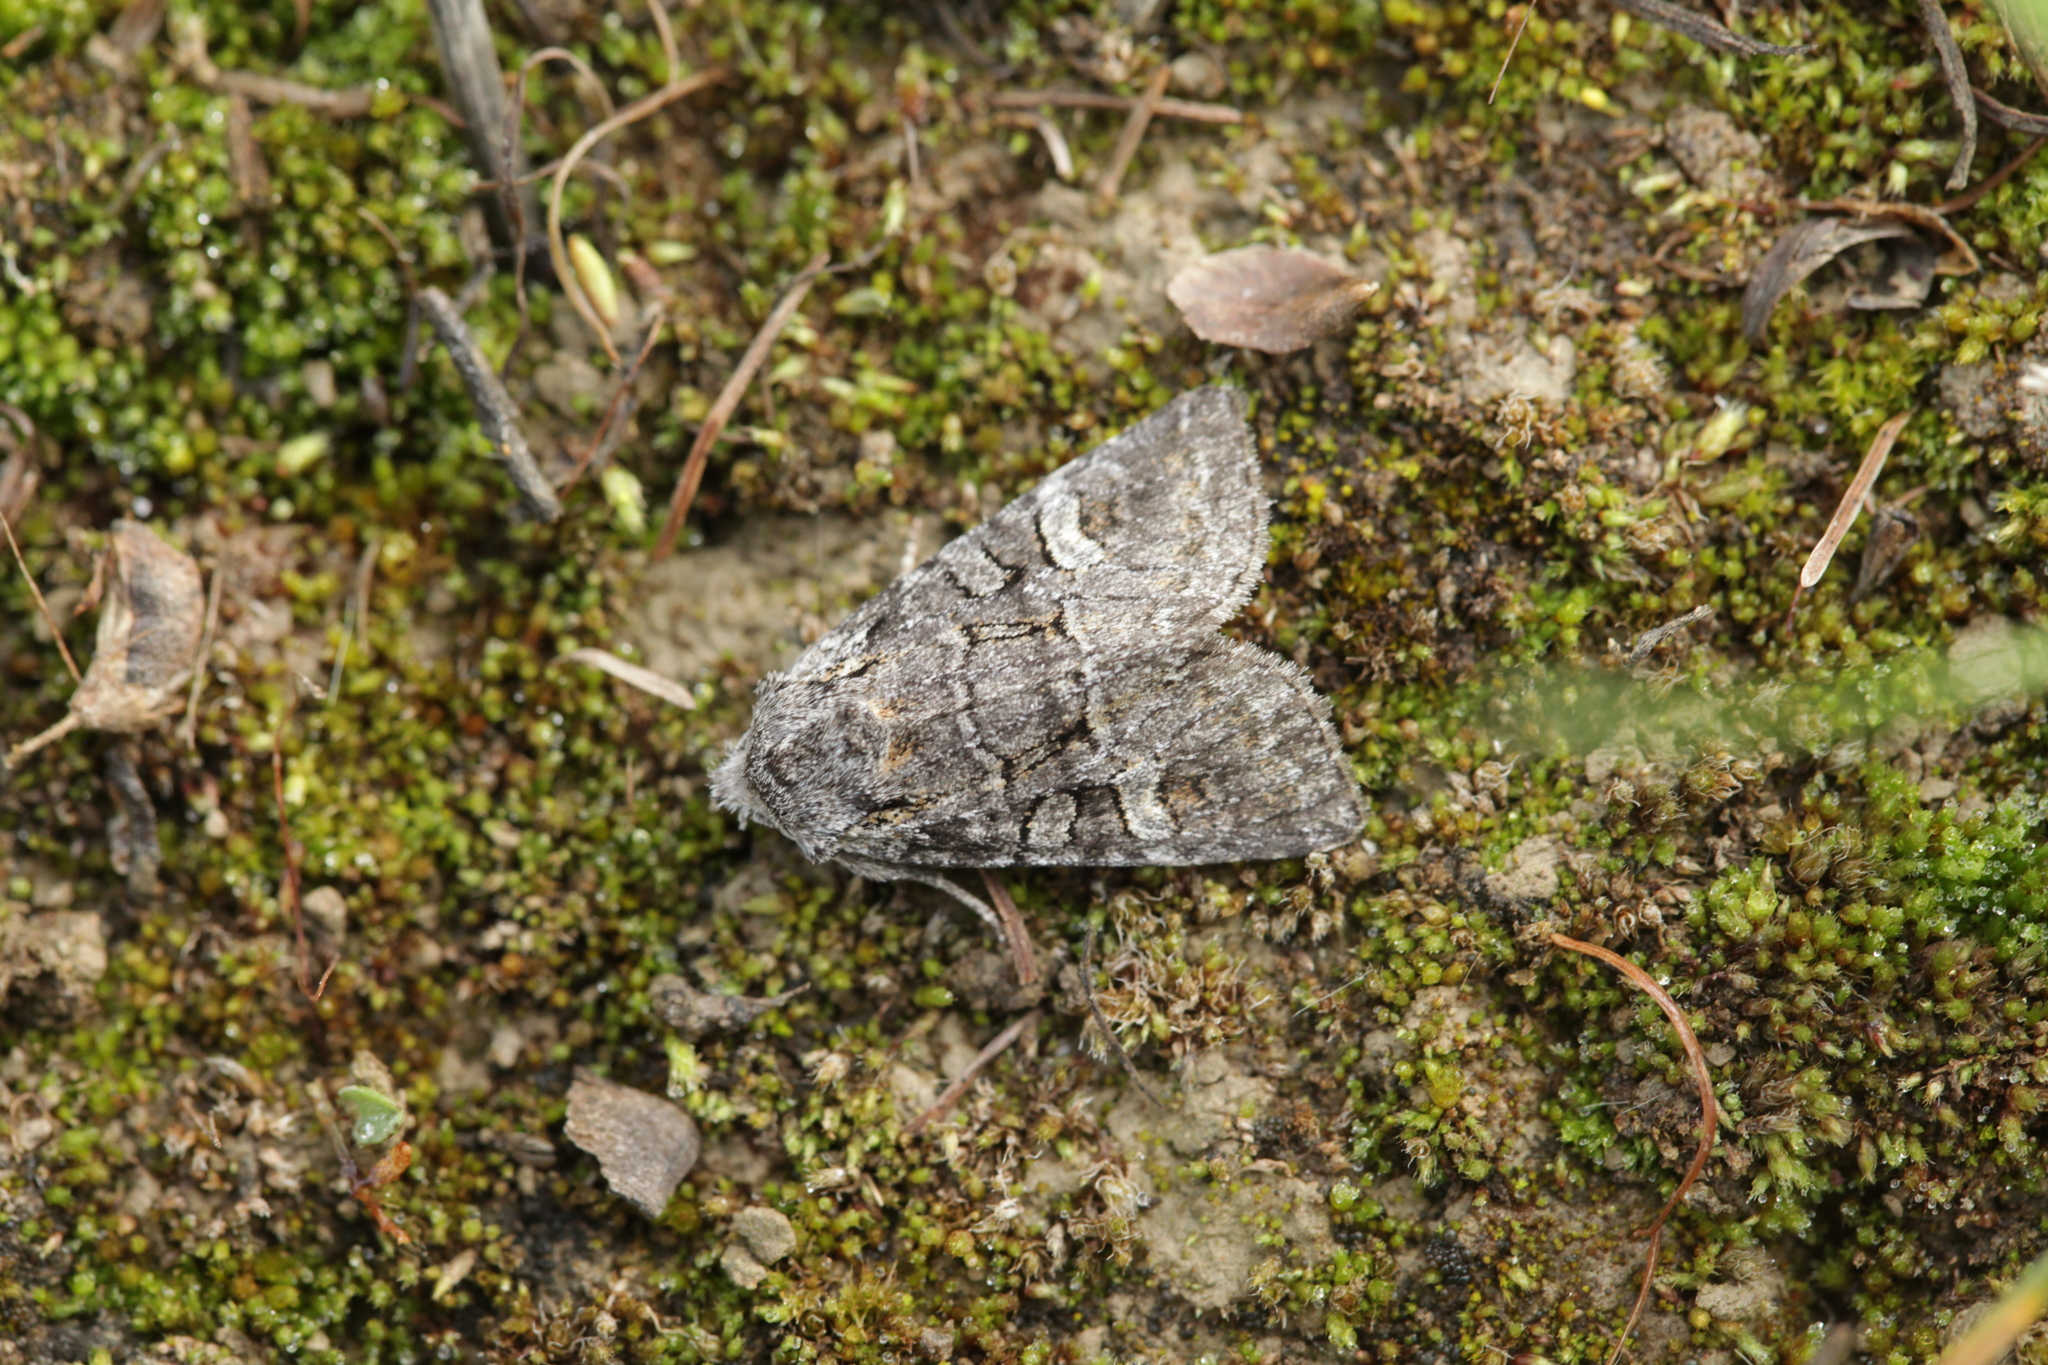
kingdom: Animalia
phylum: Arthropoda
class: Insecta
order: Lepidoptera
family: Noctuidae
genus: Brachylomia
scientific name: Brachylomia viminalis
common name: Minor shoulder-knot
